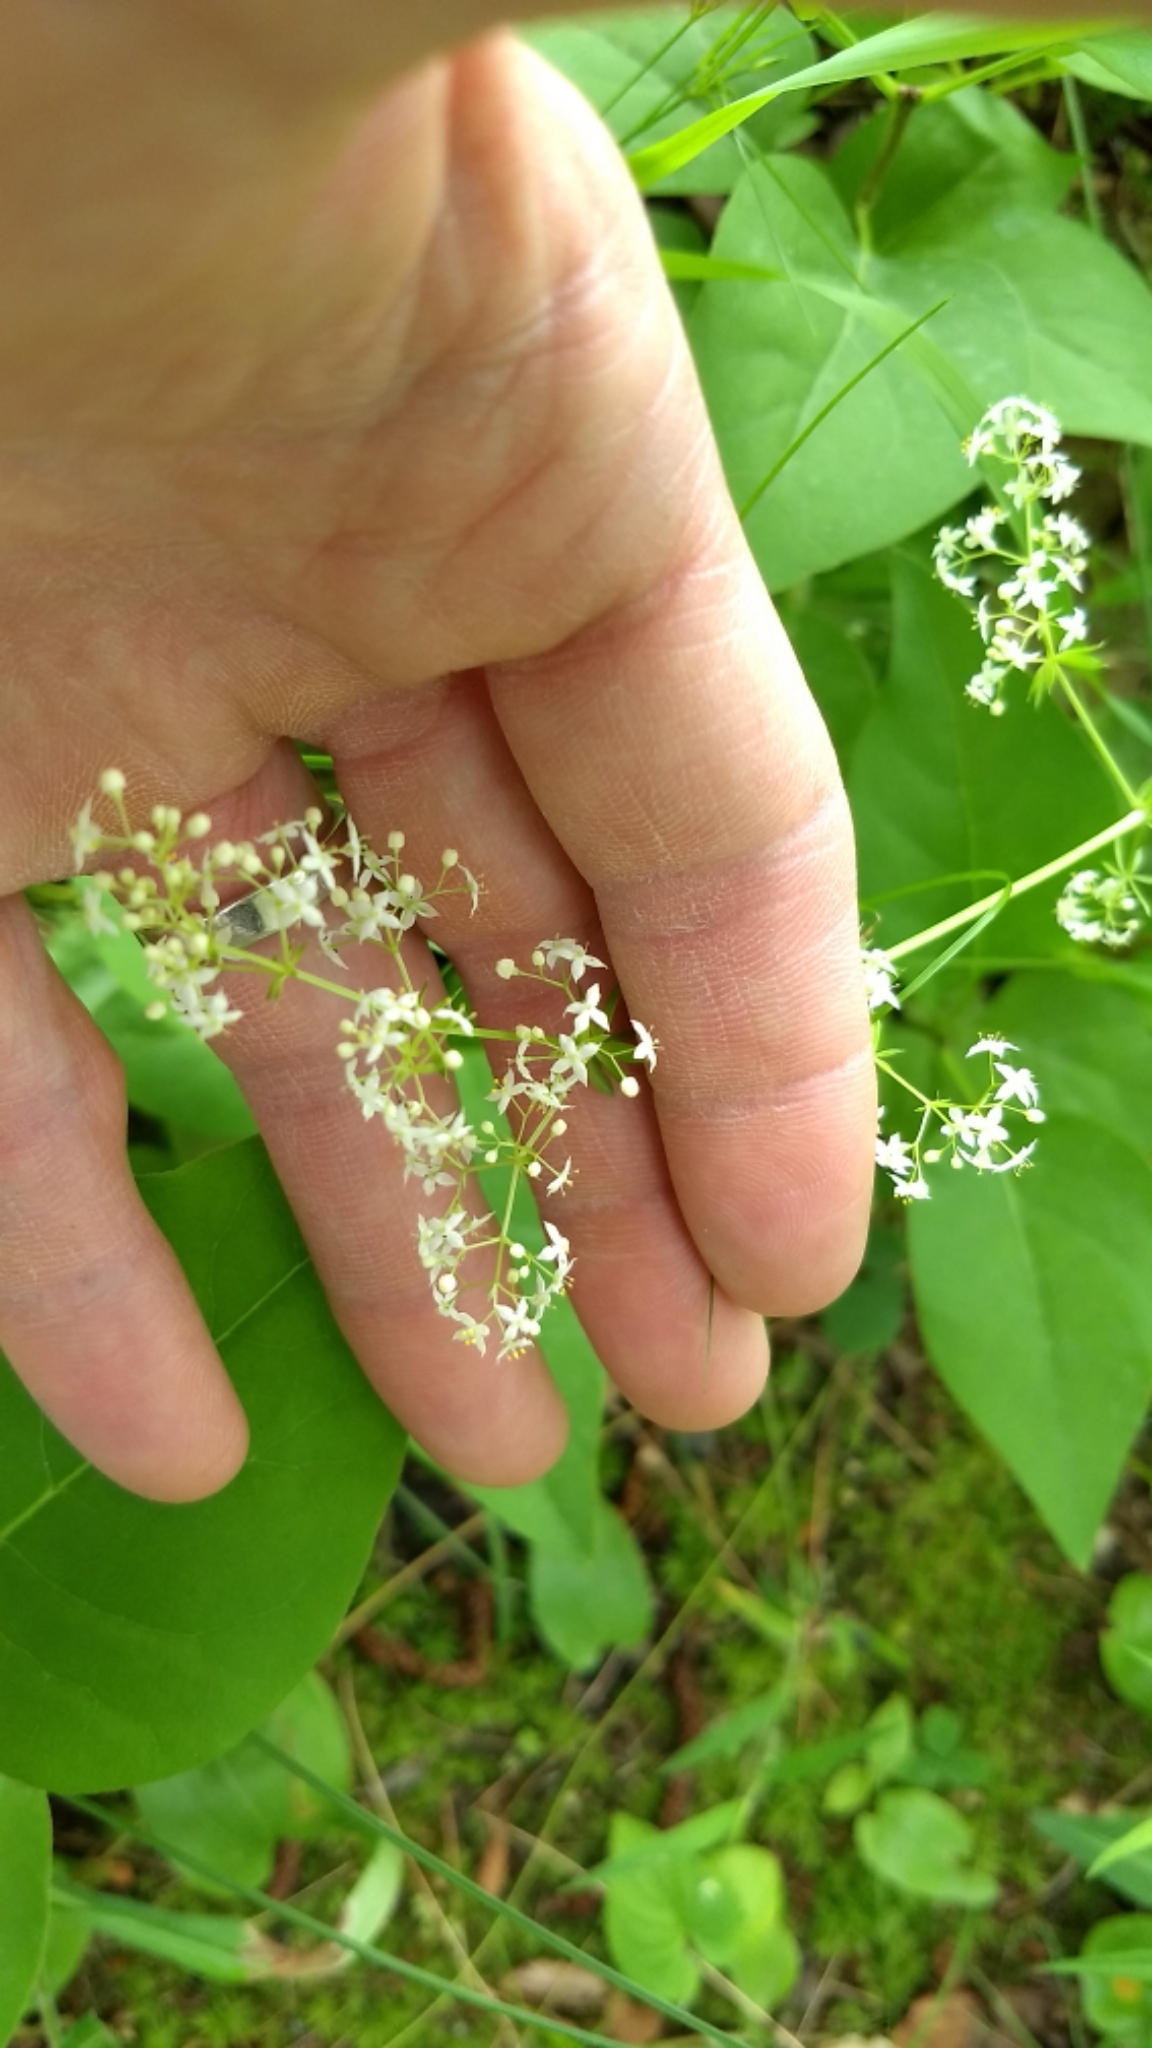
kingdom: Plantae
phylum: Tracheophyta
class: Magnoliopsida
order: Gentianales
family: Rubiaceae
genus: Galium
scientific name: Galium mollugo
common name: Hedge bedstraw
